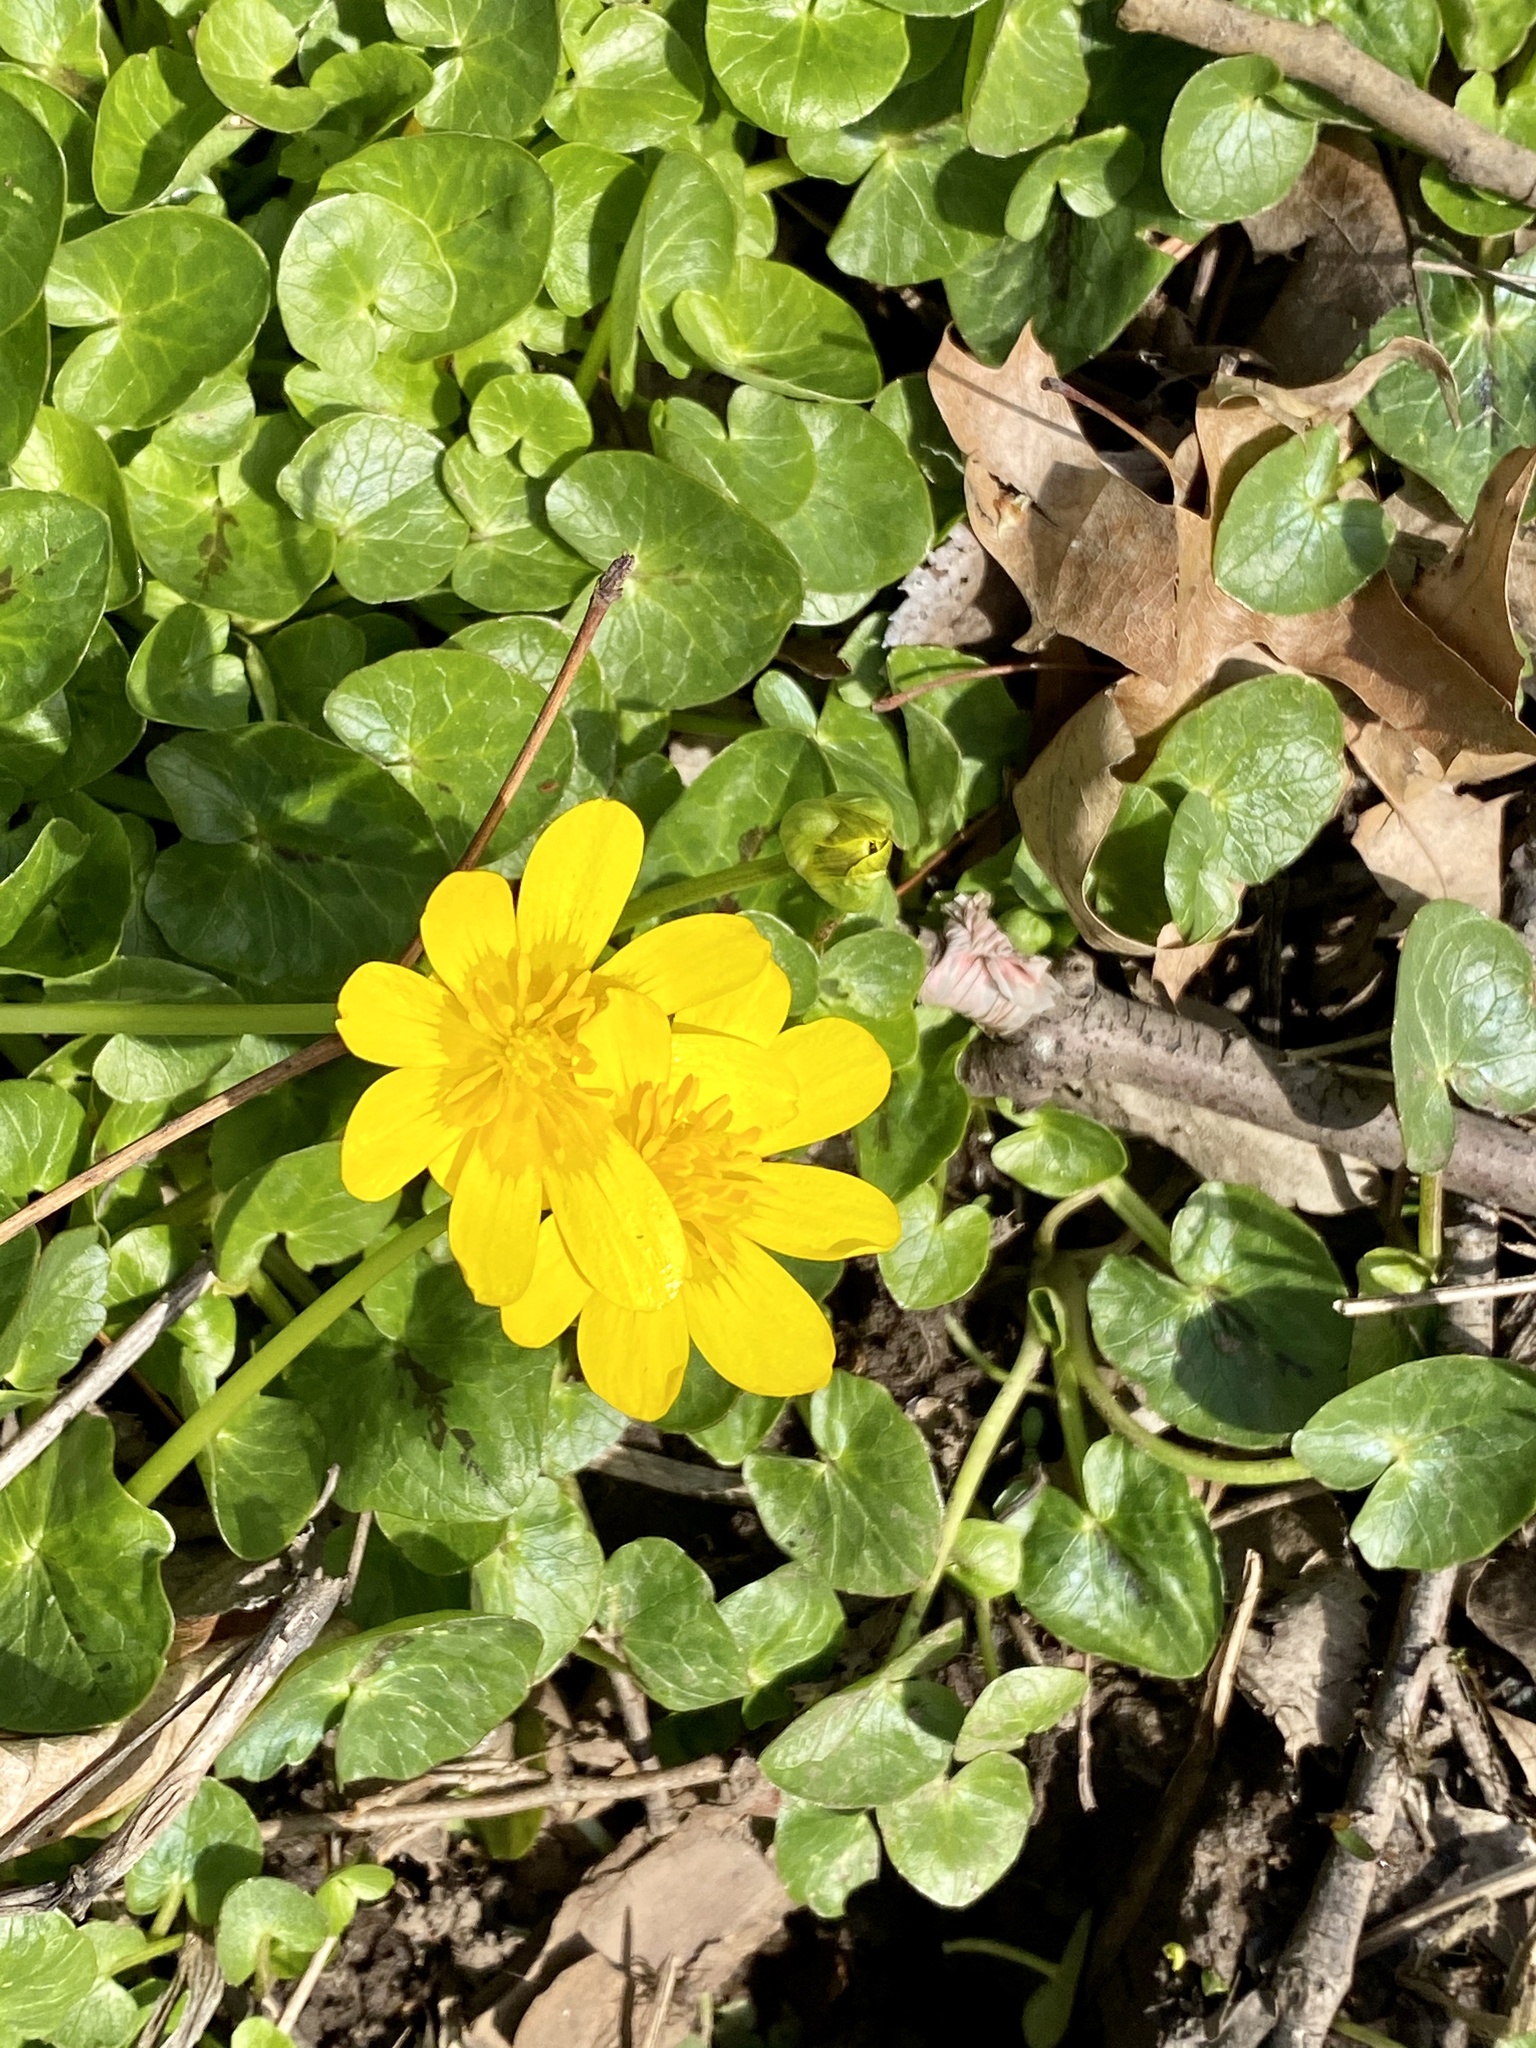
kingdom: Plantae
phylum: Tracheophyta
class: Magnoliopsida
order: Ranunculales
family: Ranunculaceae
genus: Ficaria
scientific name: Ficaria verna
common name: Lesser celandine
